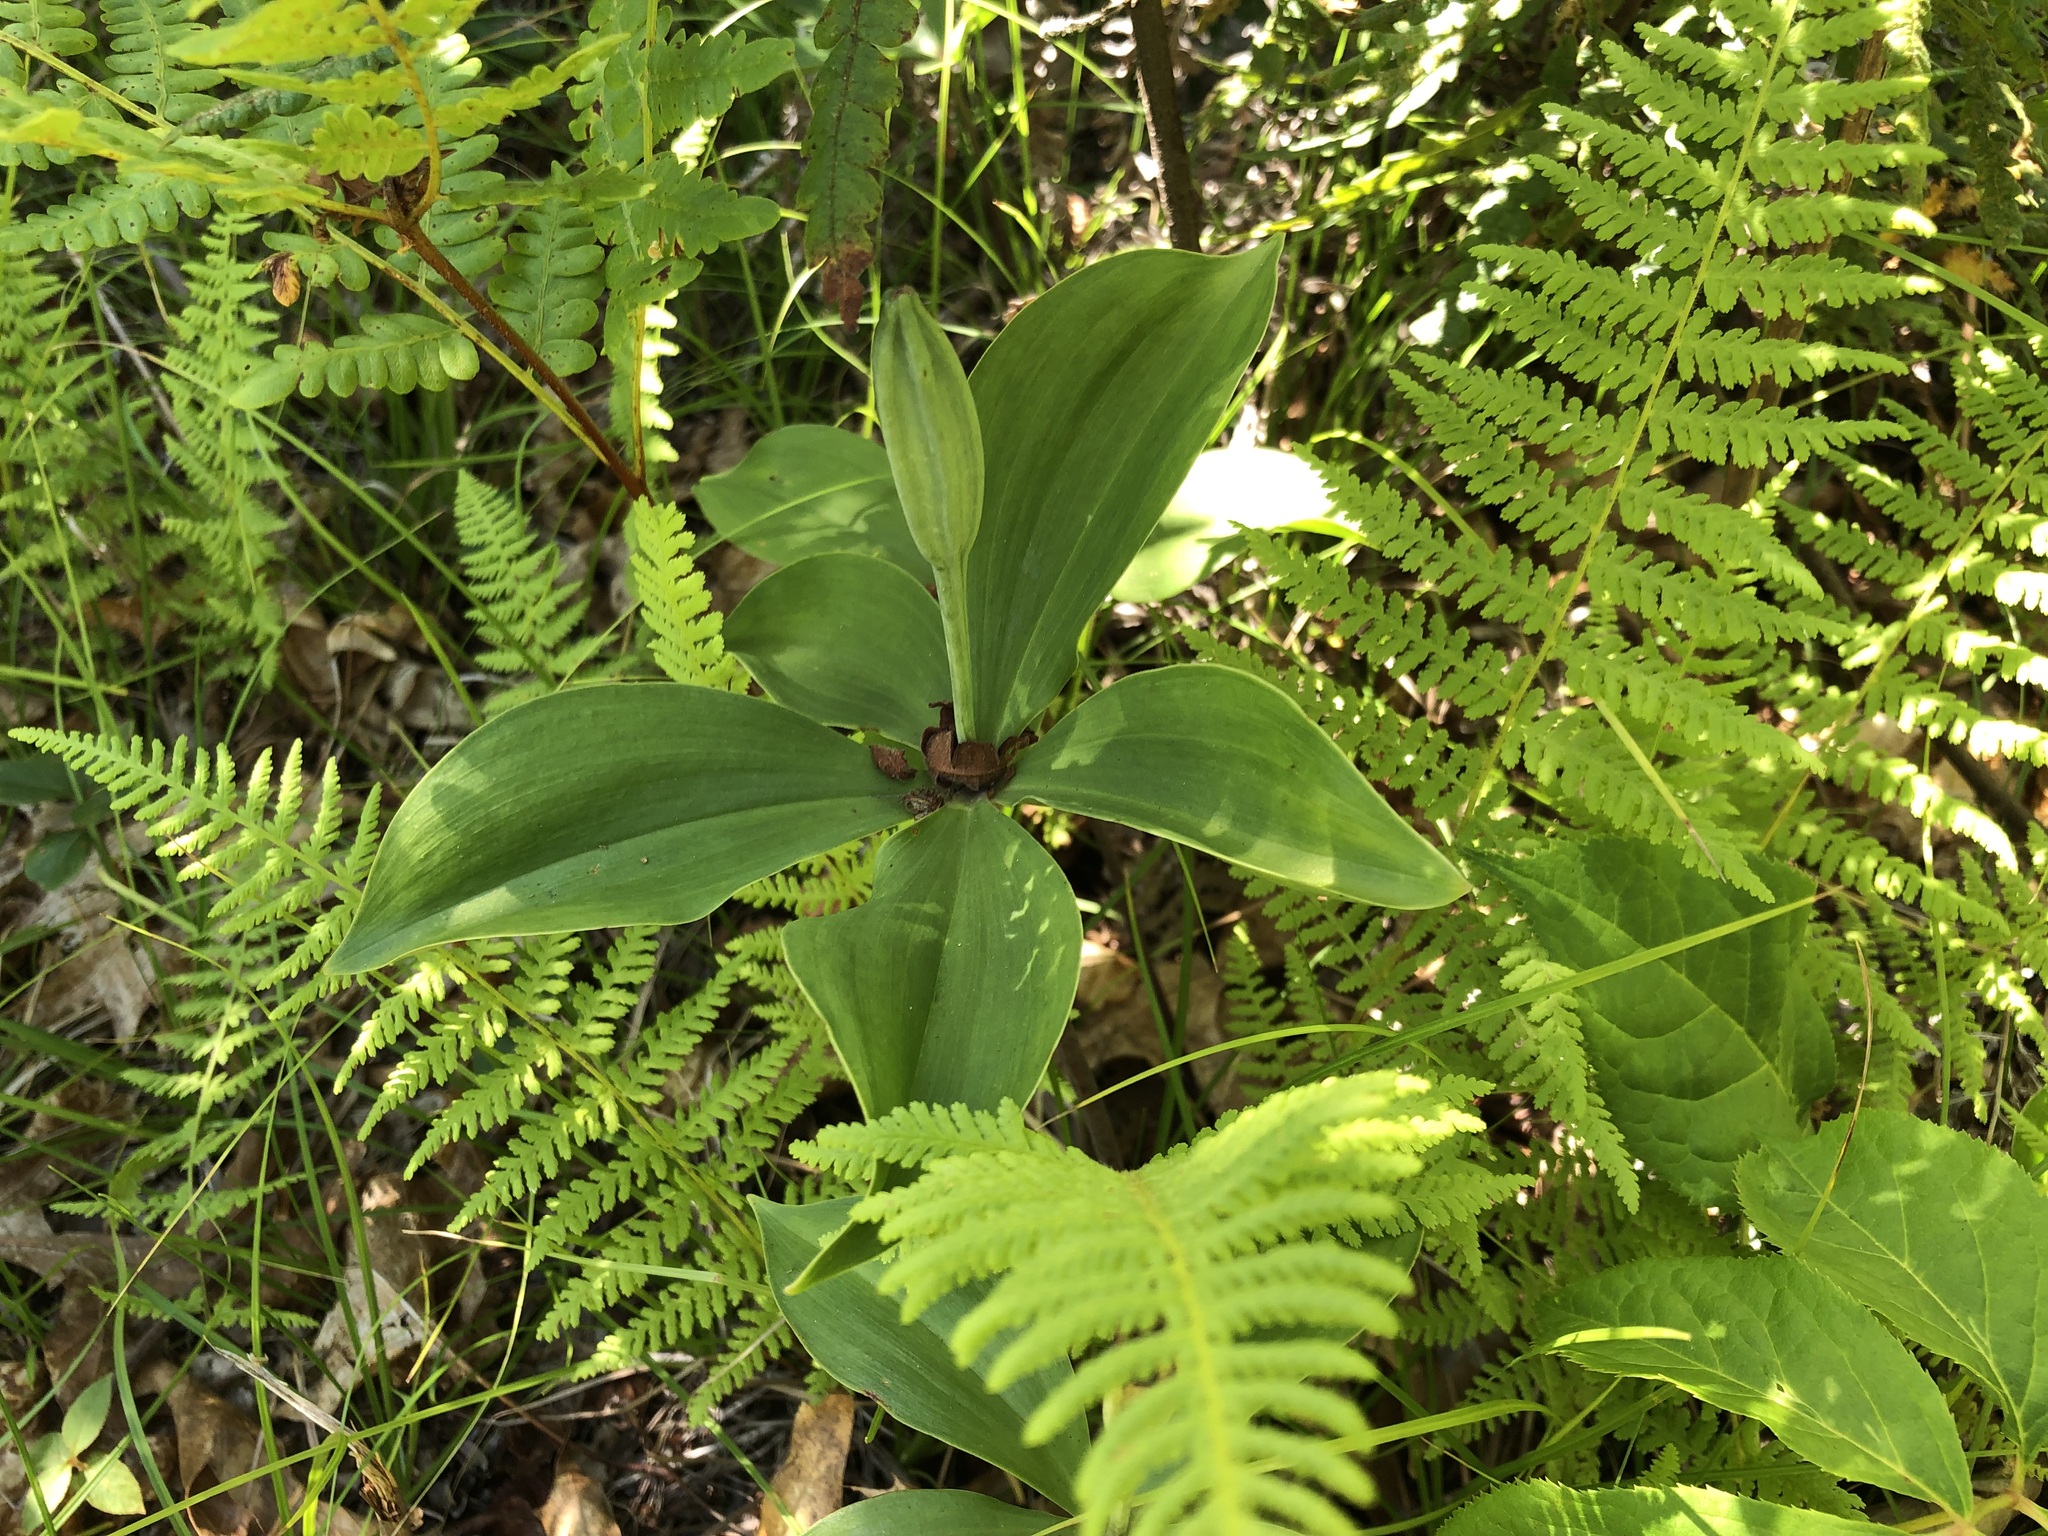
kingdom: Plantae
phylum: Tracheophyta
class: Liliopsida
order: Asparagales
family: Orchidaceae
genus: Isotria
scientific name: Isotria verticillata
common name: Large whorled pogonia
